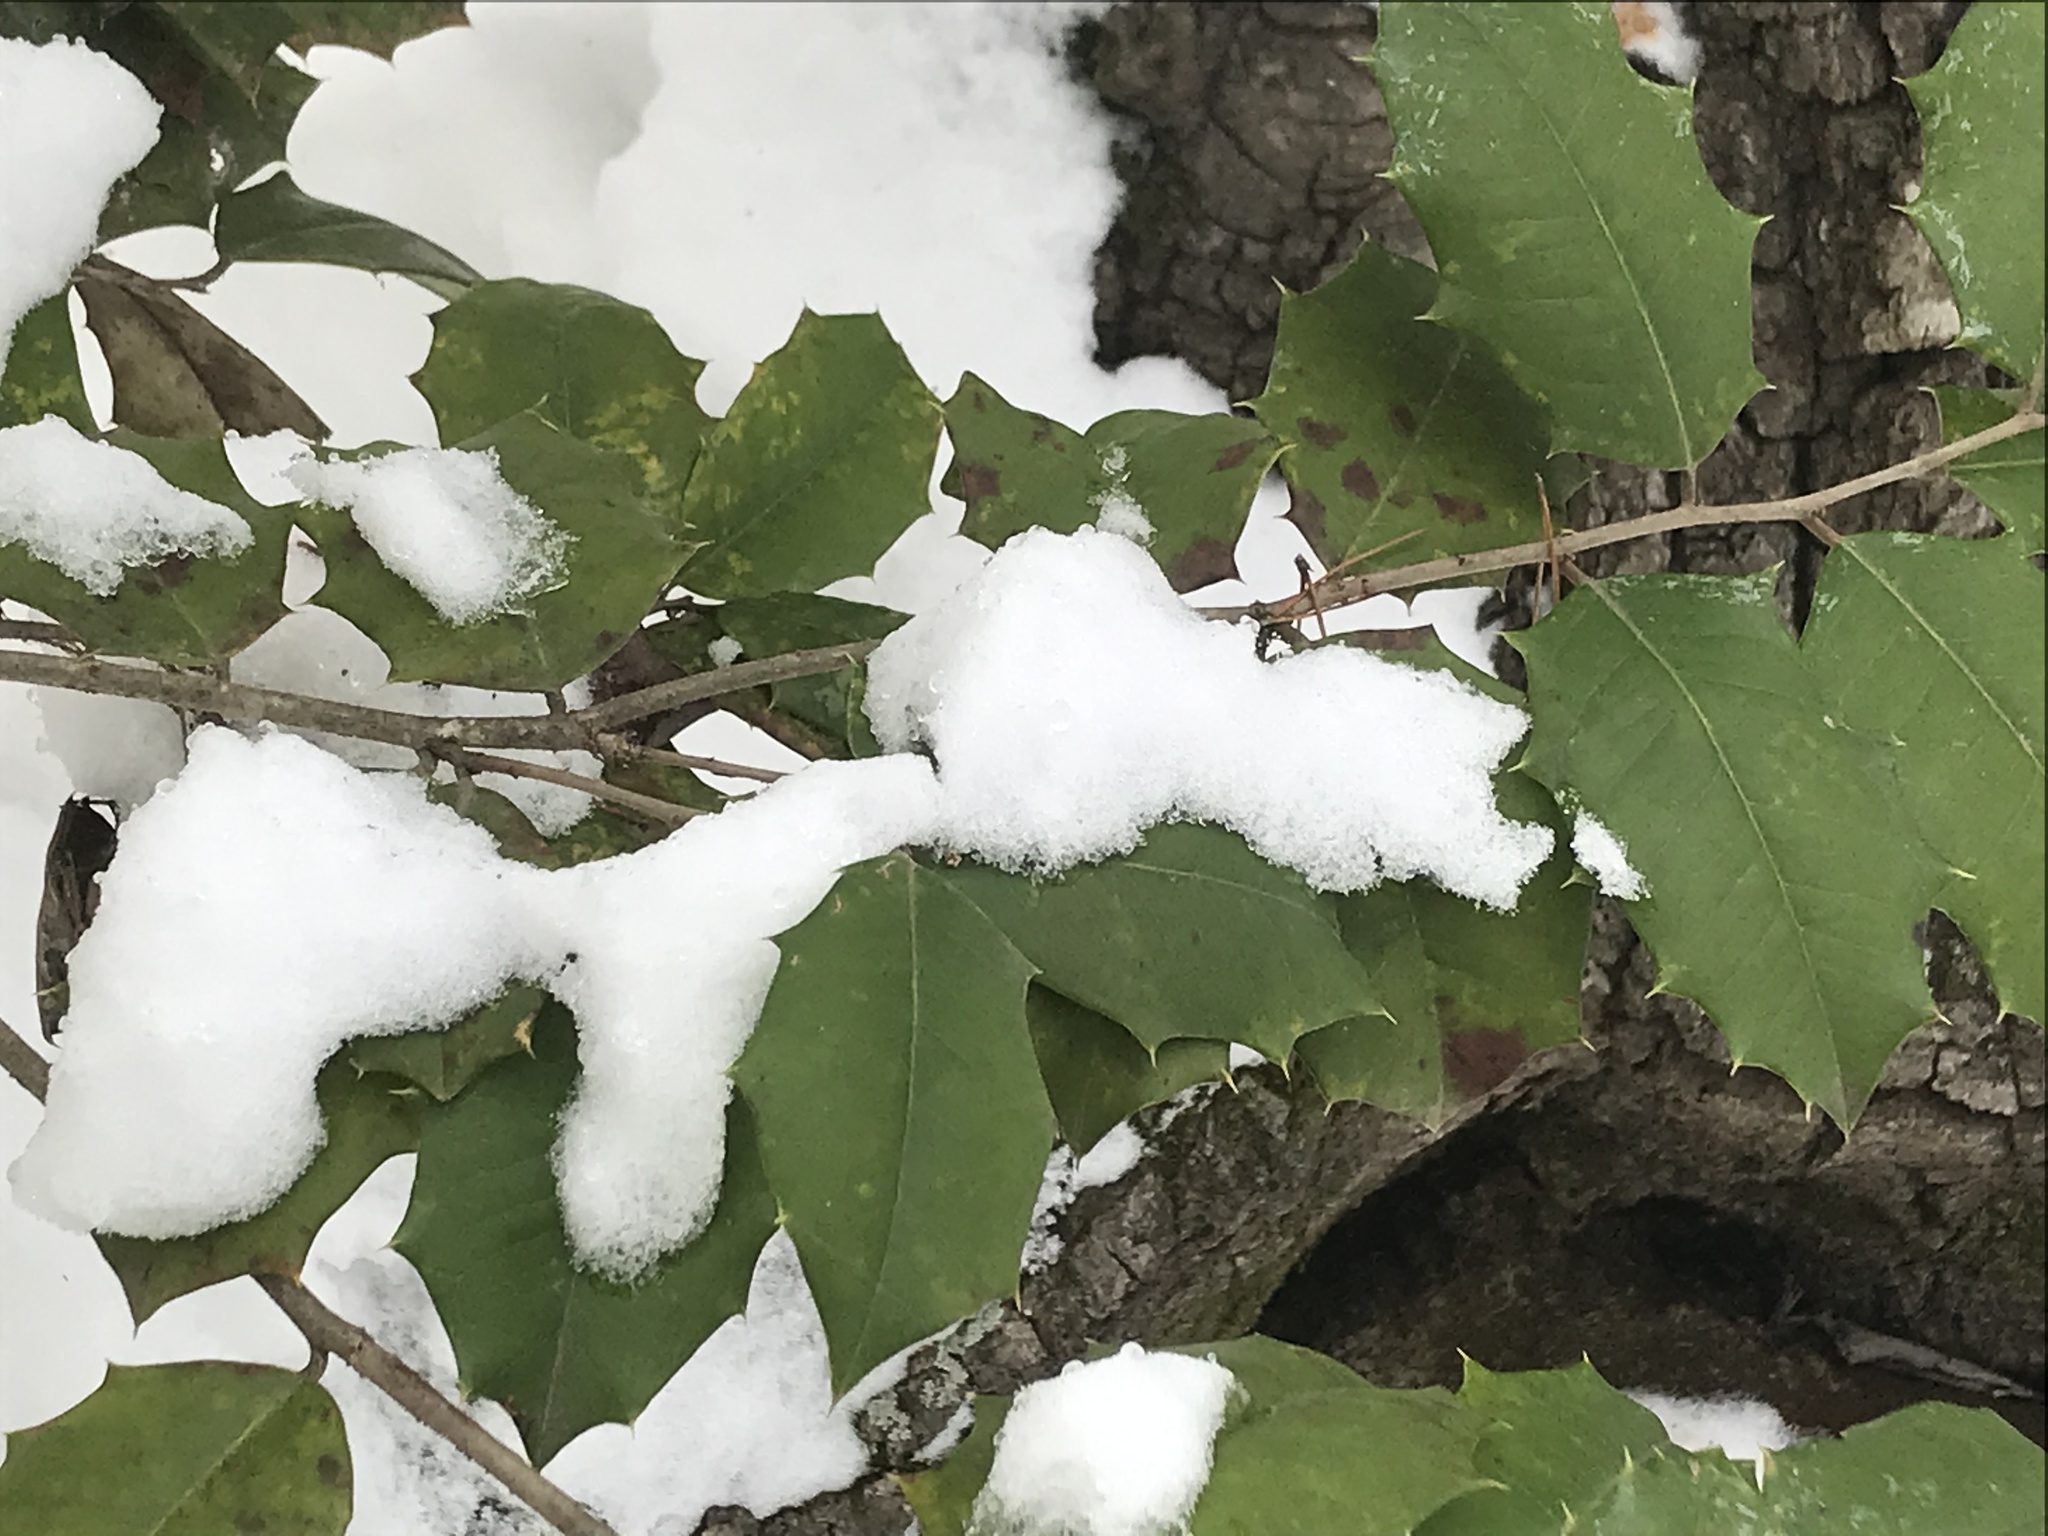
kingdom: Plantae
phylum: Tracheophyta
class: Magnoliopsida
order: Aquifoliales
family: Aquifoliaceae
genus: Ilex
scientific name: Ilex opaca
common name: American holly
